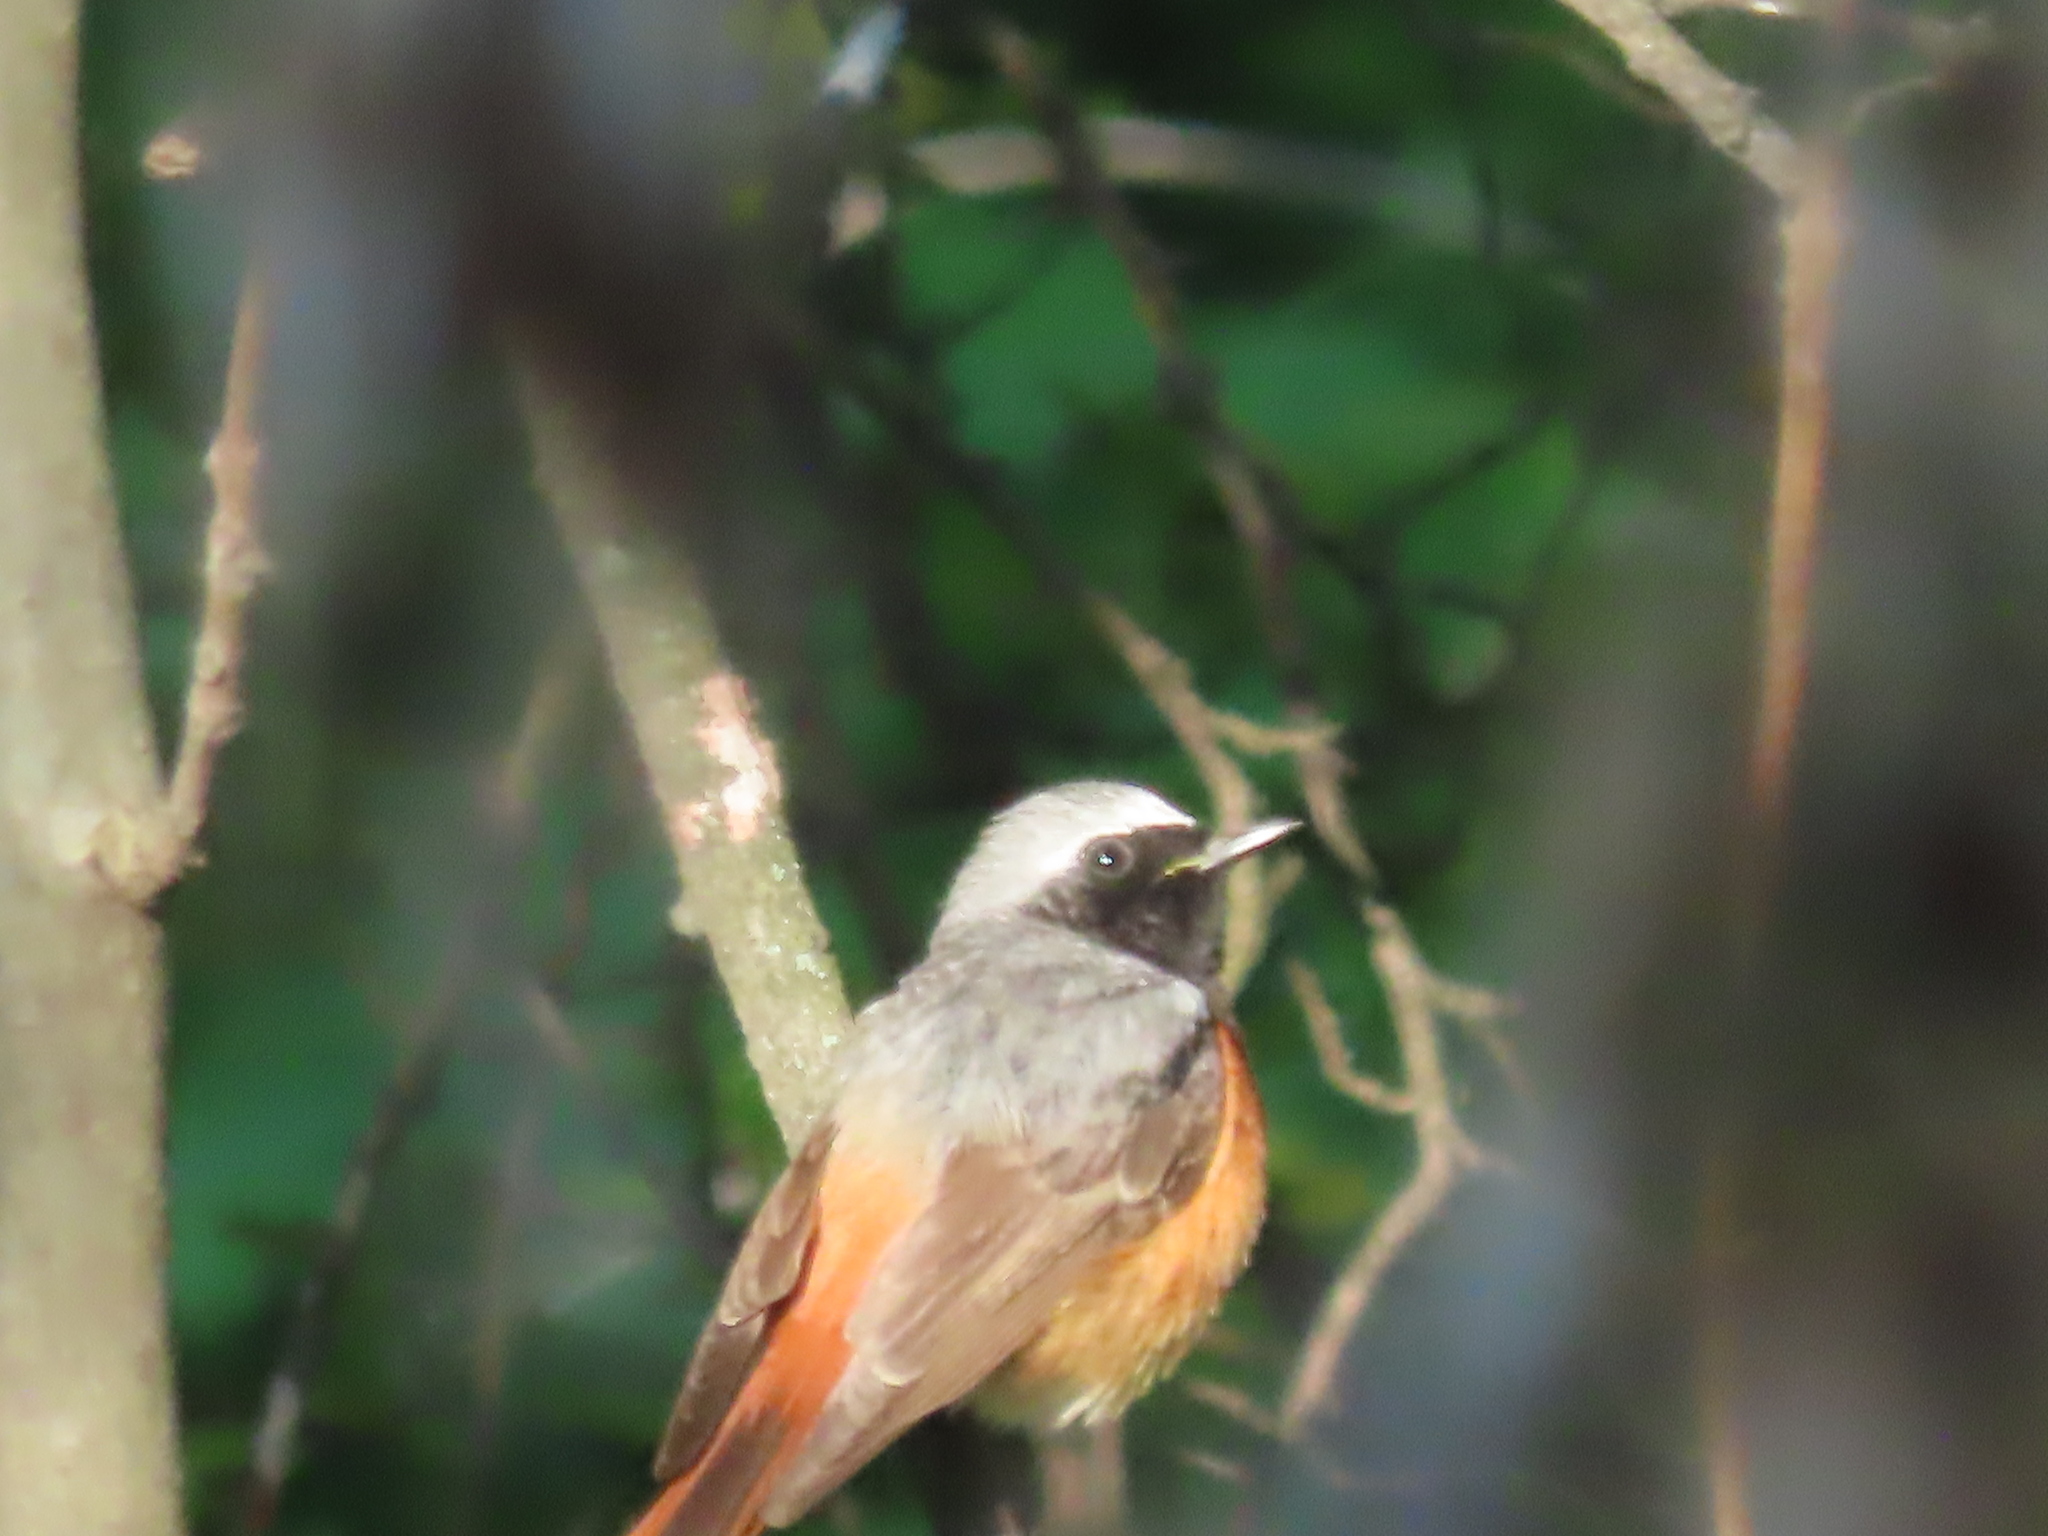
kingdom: Animalia
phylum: Chordata
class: Aves
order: Passeriformes
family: Muscicapidae
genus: Phoenicurus
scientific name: Phoenicurus phoenicurus
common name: Common redstart
